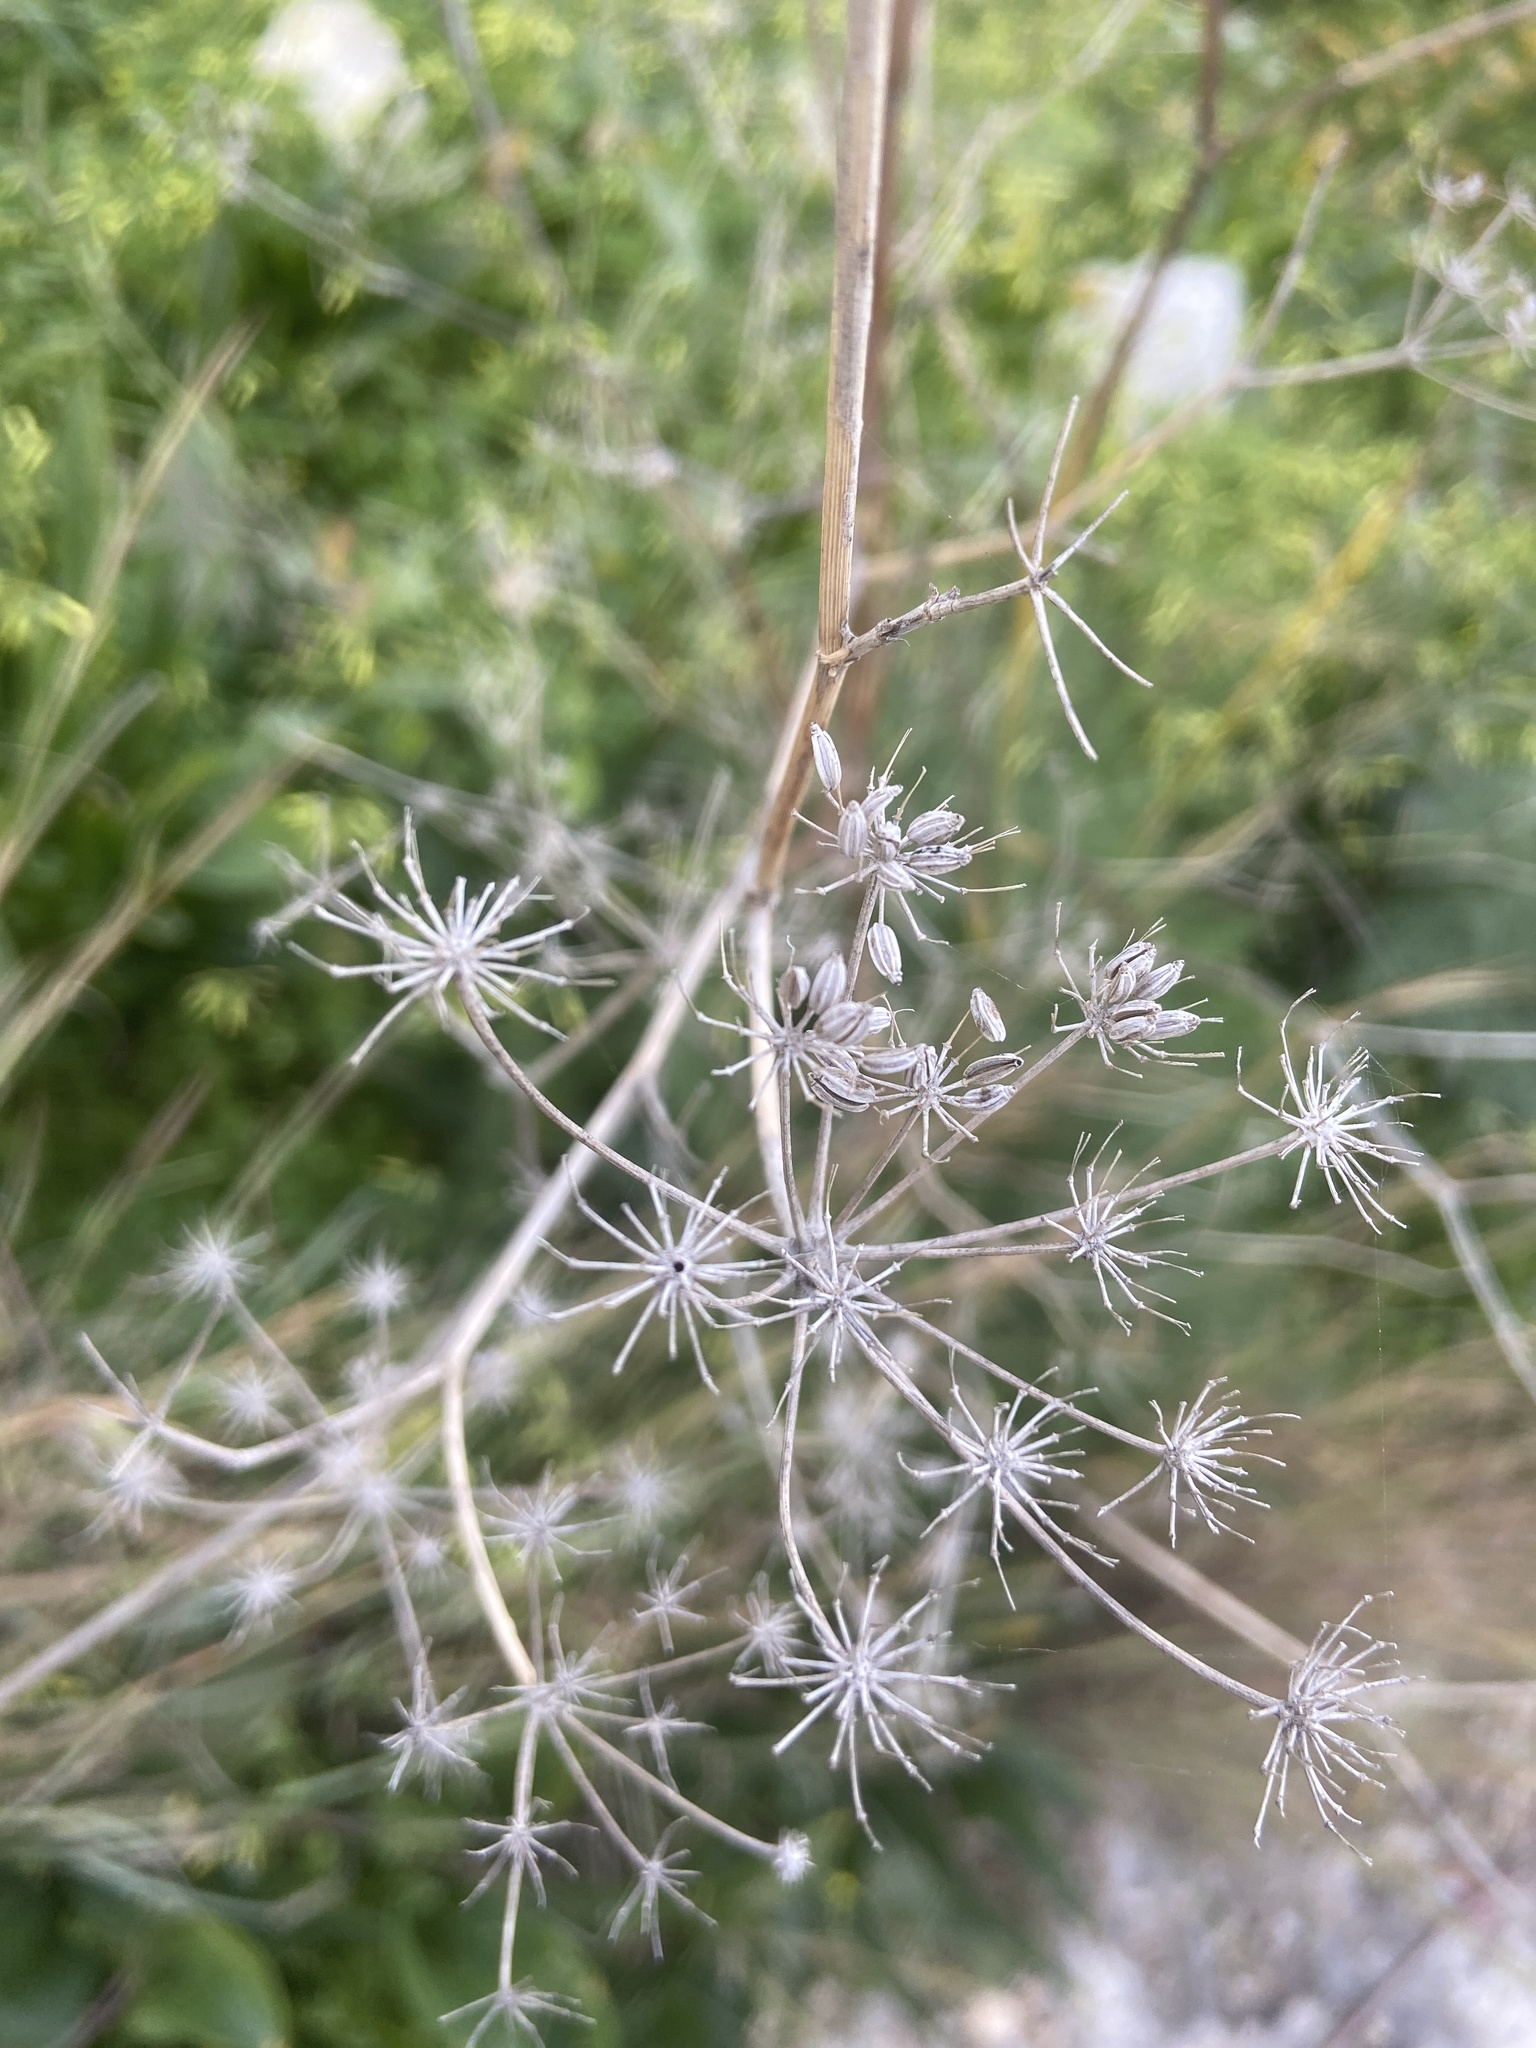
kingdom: Plantae
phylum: Tracheophyta
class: Magnoliopsida
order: Apiales
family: Apiaceae
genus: Foeniculum
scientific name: Foeniculum vulgare
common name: Fennel
